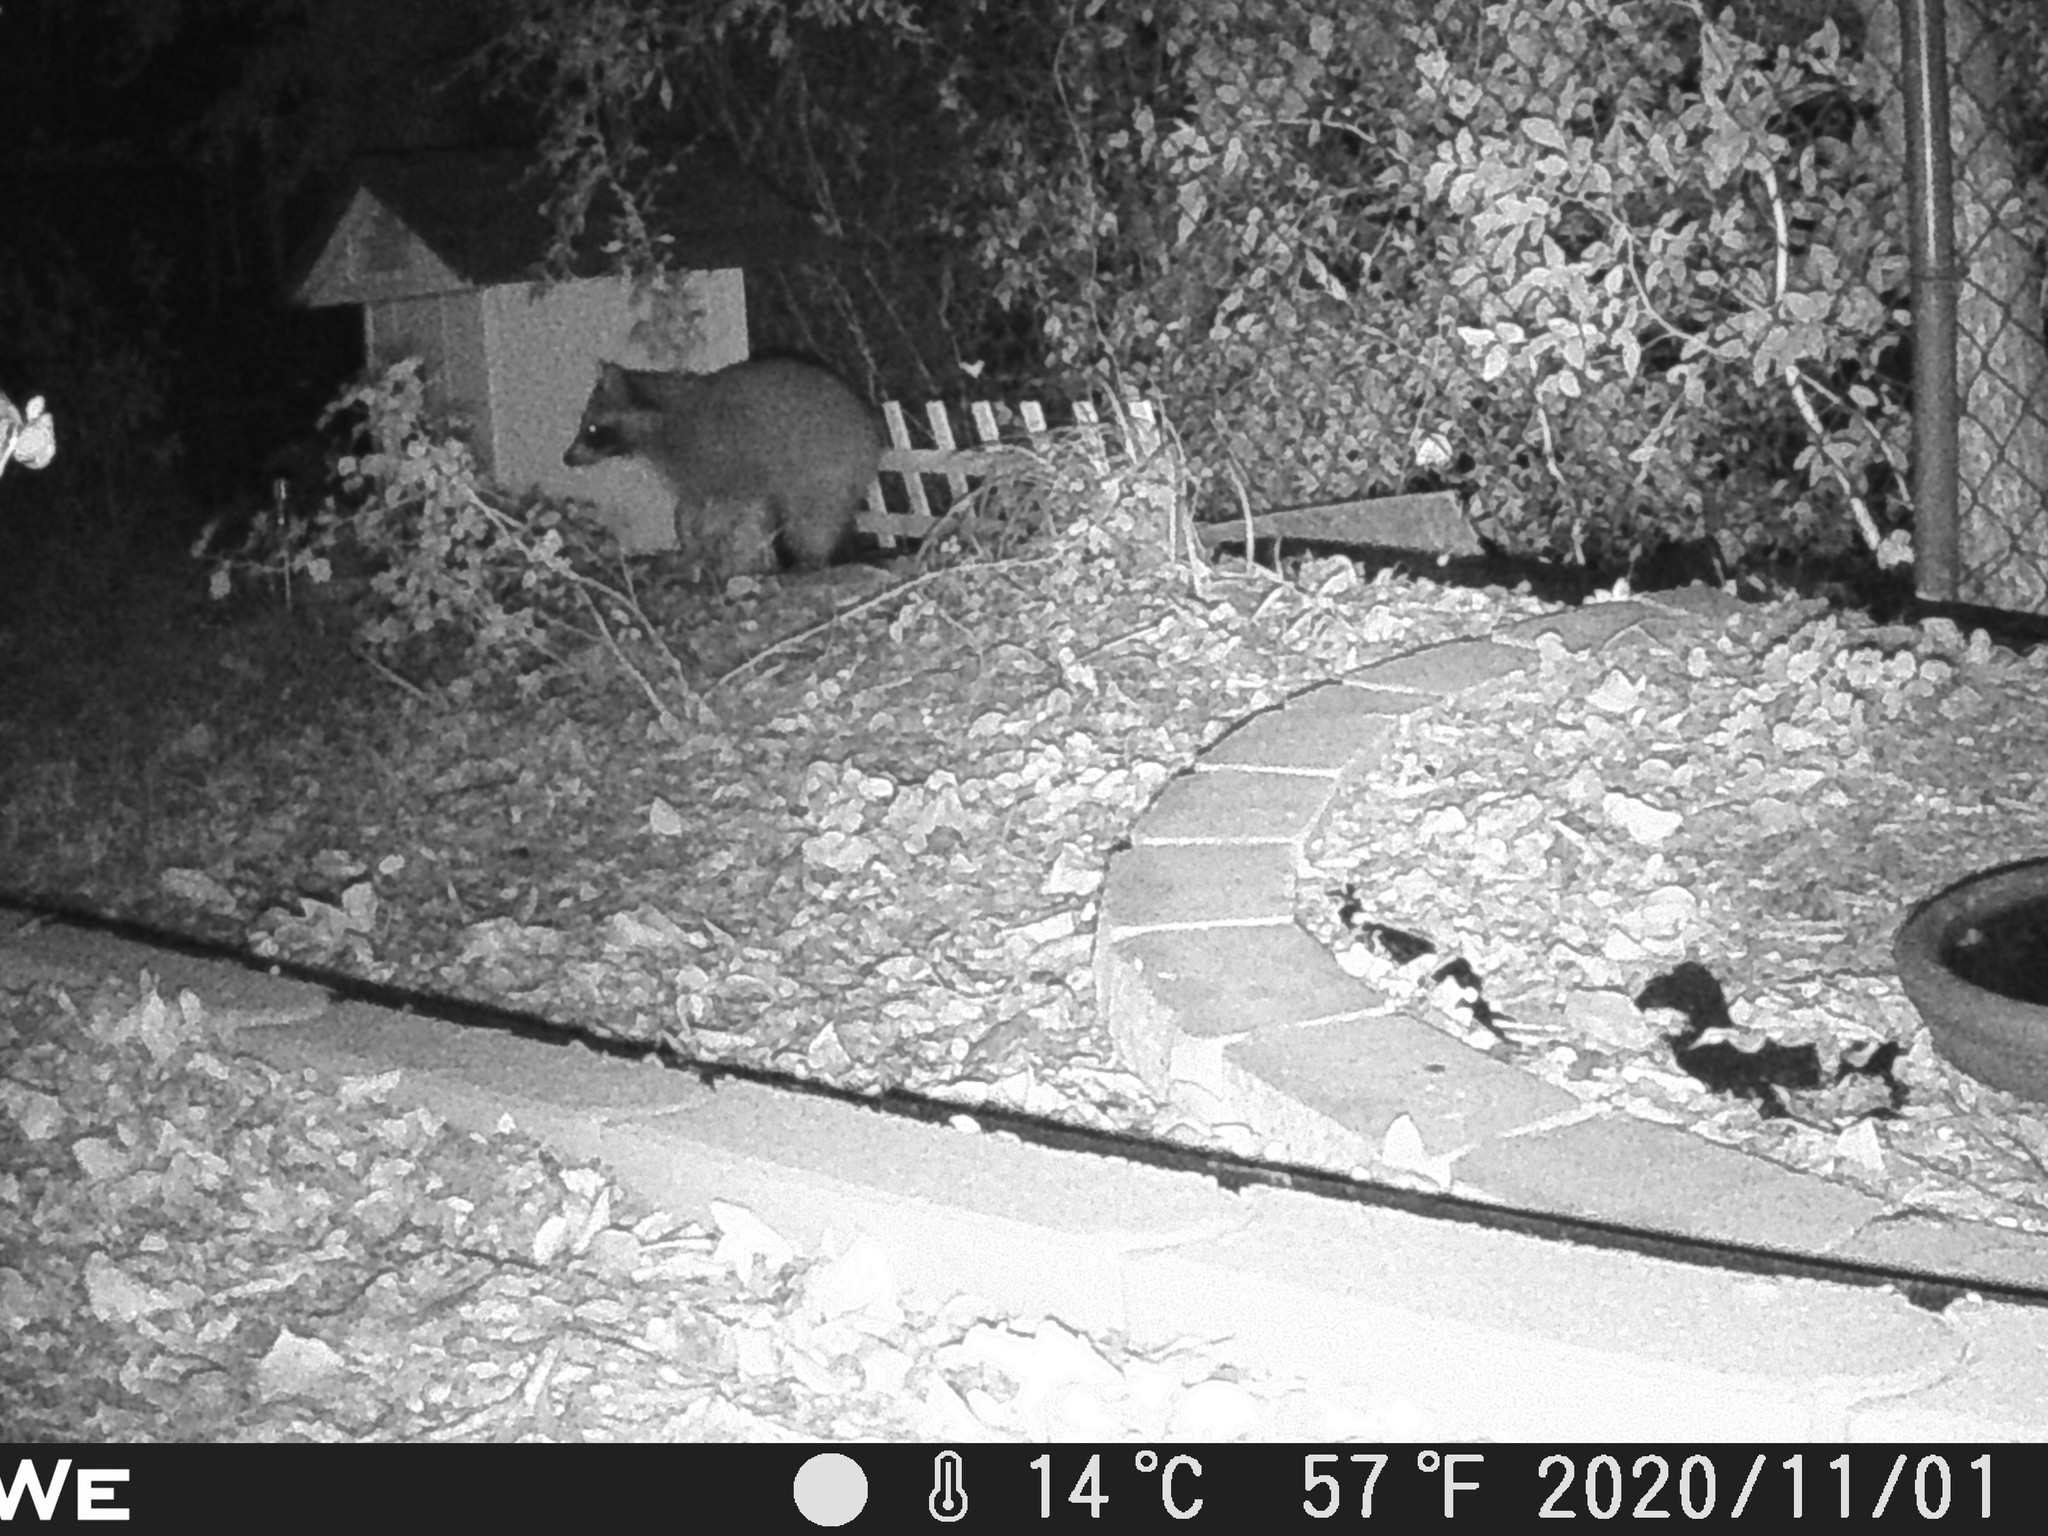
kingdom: Animalia
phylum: Chordata
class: Mammalia
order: Carnivora
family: Procyonidae
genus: Procyon
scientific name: Procyon lotor
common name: Raccoon
